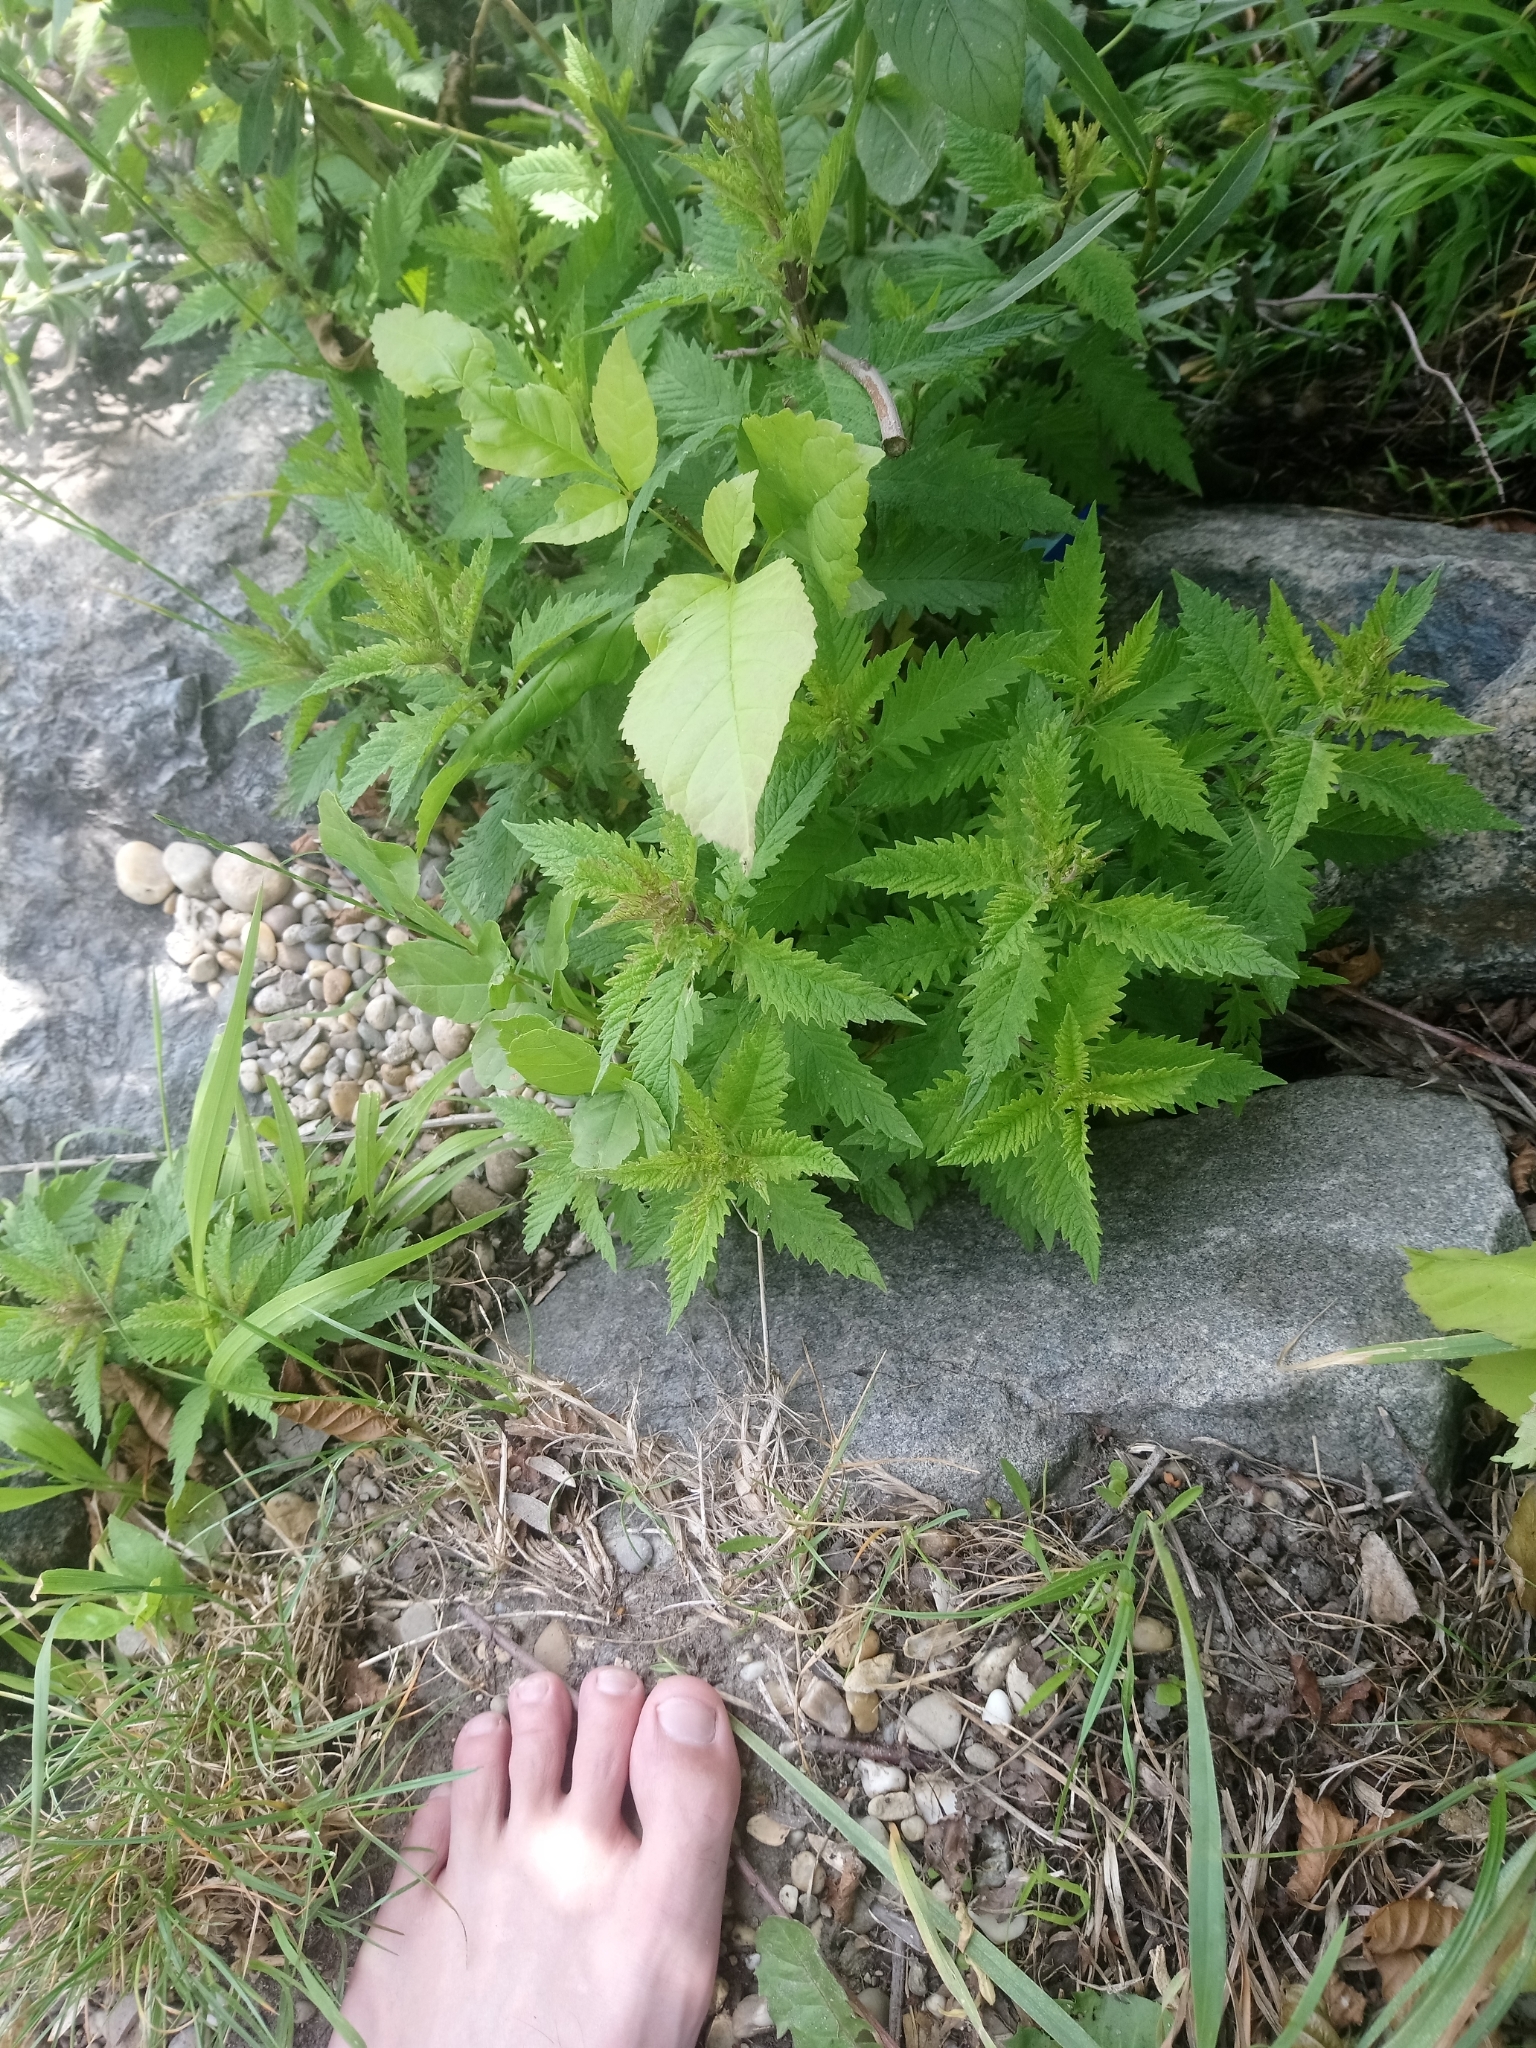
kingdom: Plantae
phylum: Tracheophyta
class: Magnoliopsida
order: Lamiales
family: Lamiaceae
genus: Lycopus
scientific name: Lycopus europaeus
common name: European bugleweed
